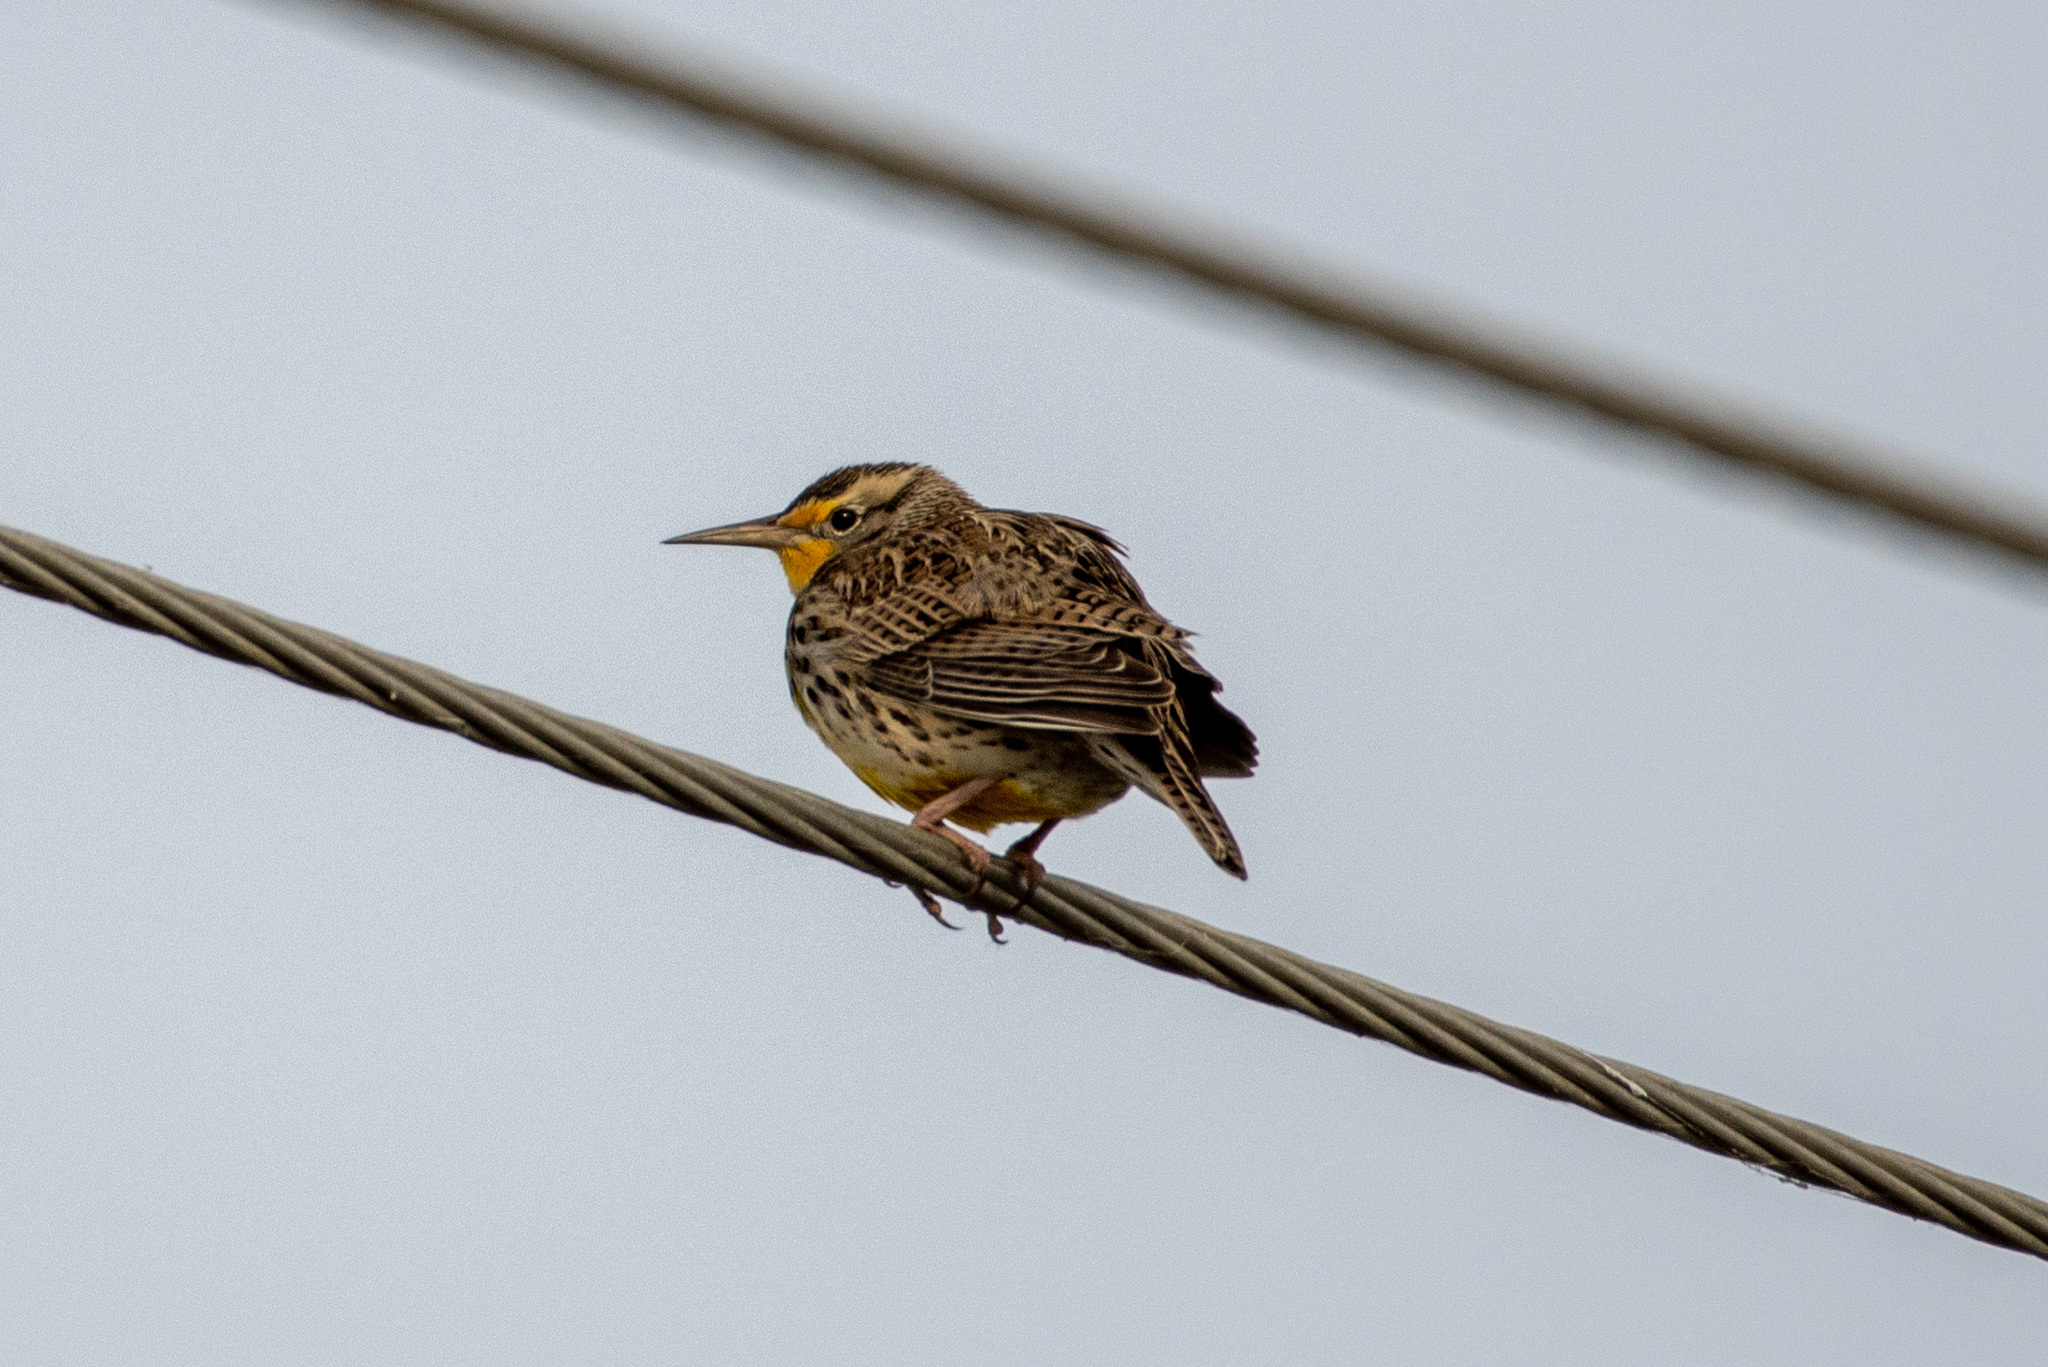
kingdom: Animalia
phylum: Chordata
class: Aves
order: Passeriformes
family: Icteridae
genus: Sturnella
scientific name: Sturnella neglecta
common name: Western meadowlark
